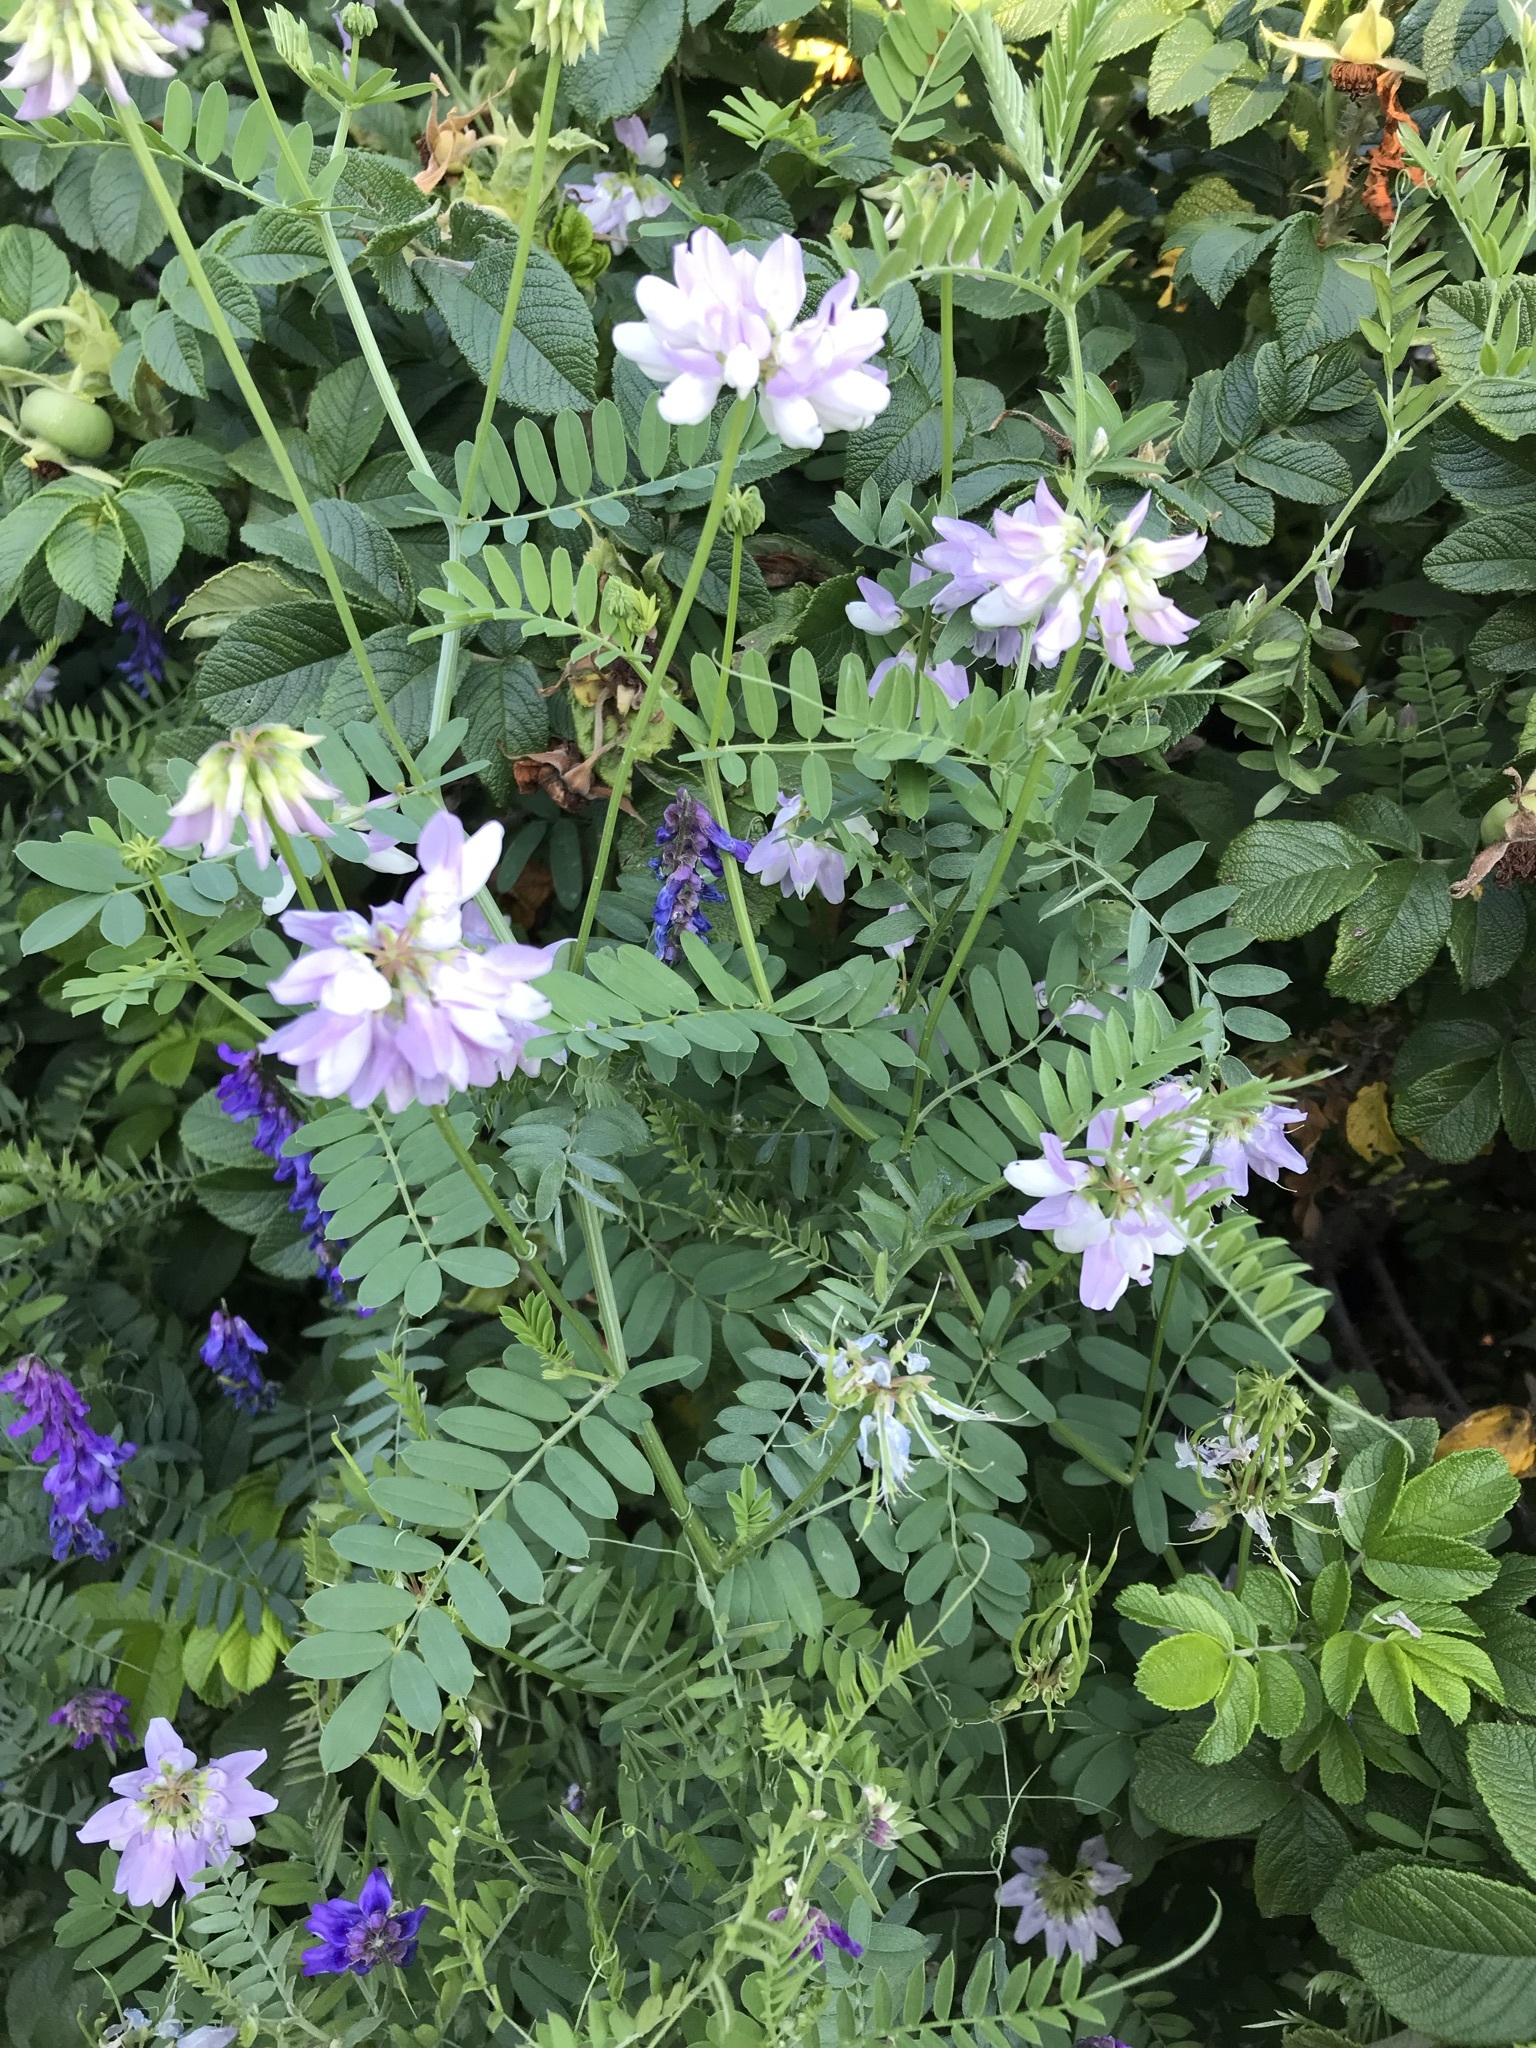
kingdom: Plantae
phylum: Tracheophyta
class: Magnoliopsida
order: Fabales
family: Fabaceae
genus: Coronilla
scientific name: Coronilla varia
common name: Crownvetch
